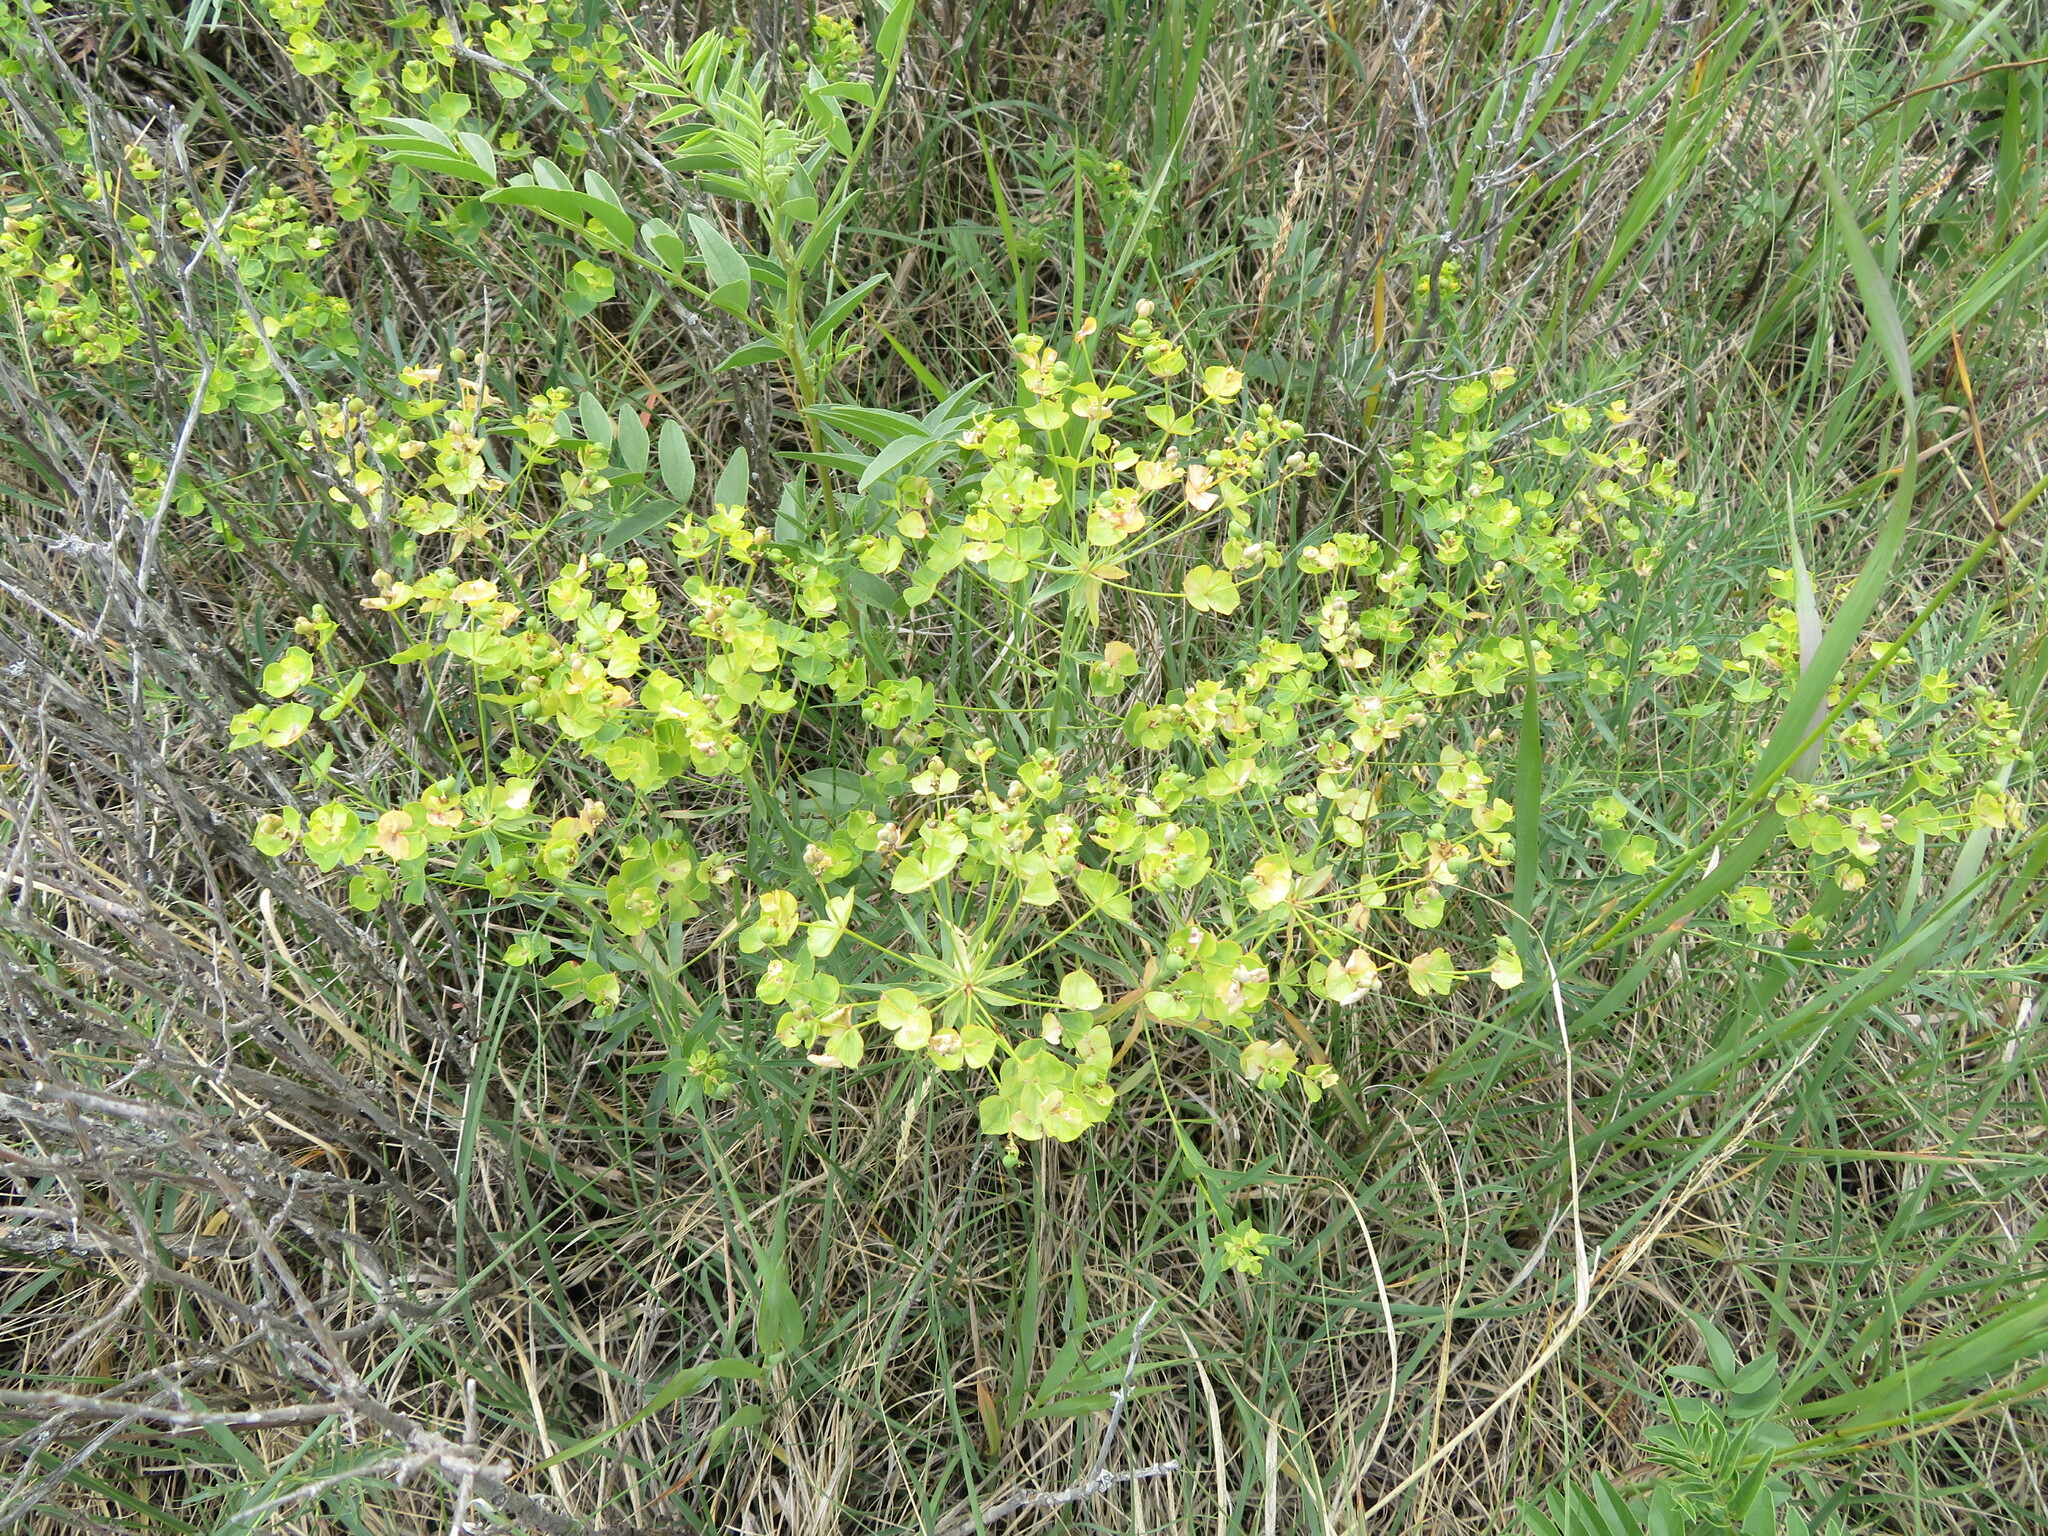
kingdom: Plantae
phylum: Tracheophyta
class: Magnoliopsida
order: Malpighiales
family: Euphorbiaceae
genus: Euphorbia
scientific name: Euphorbia virgata
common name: Leafy spurge
